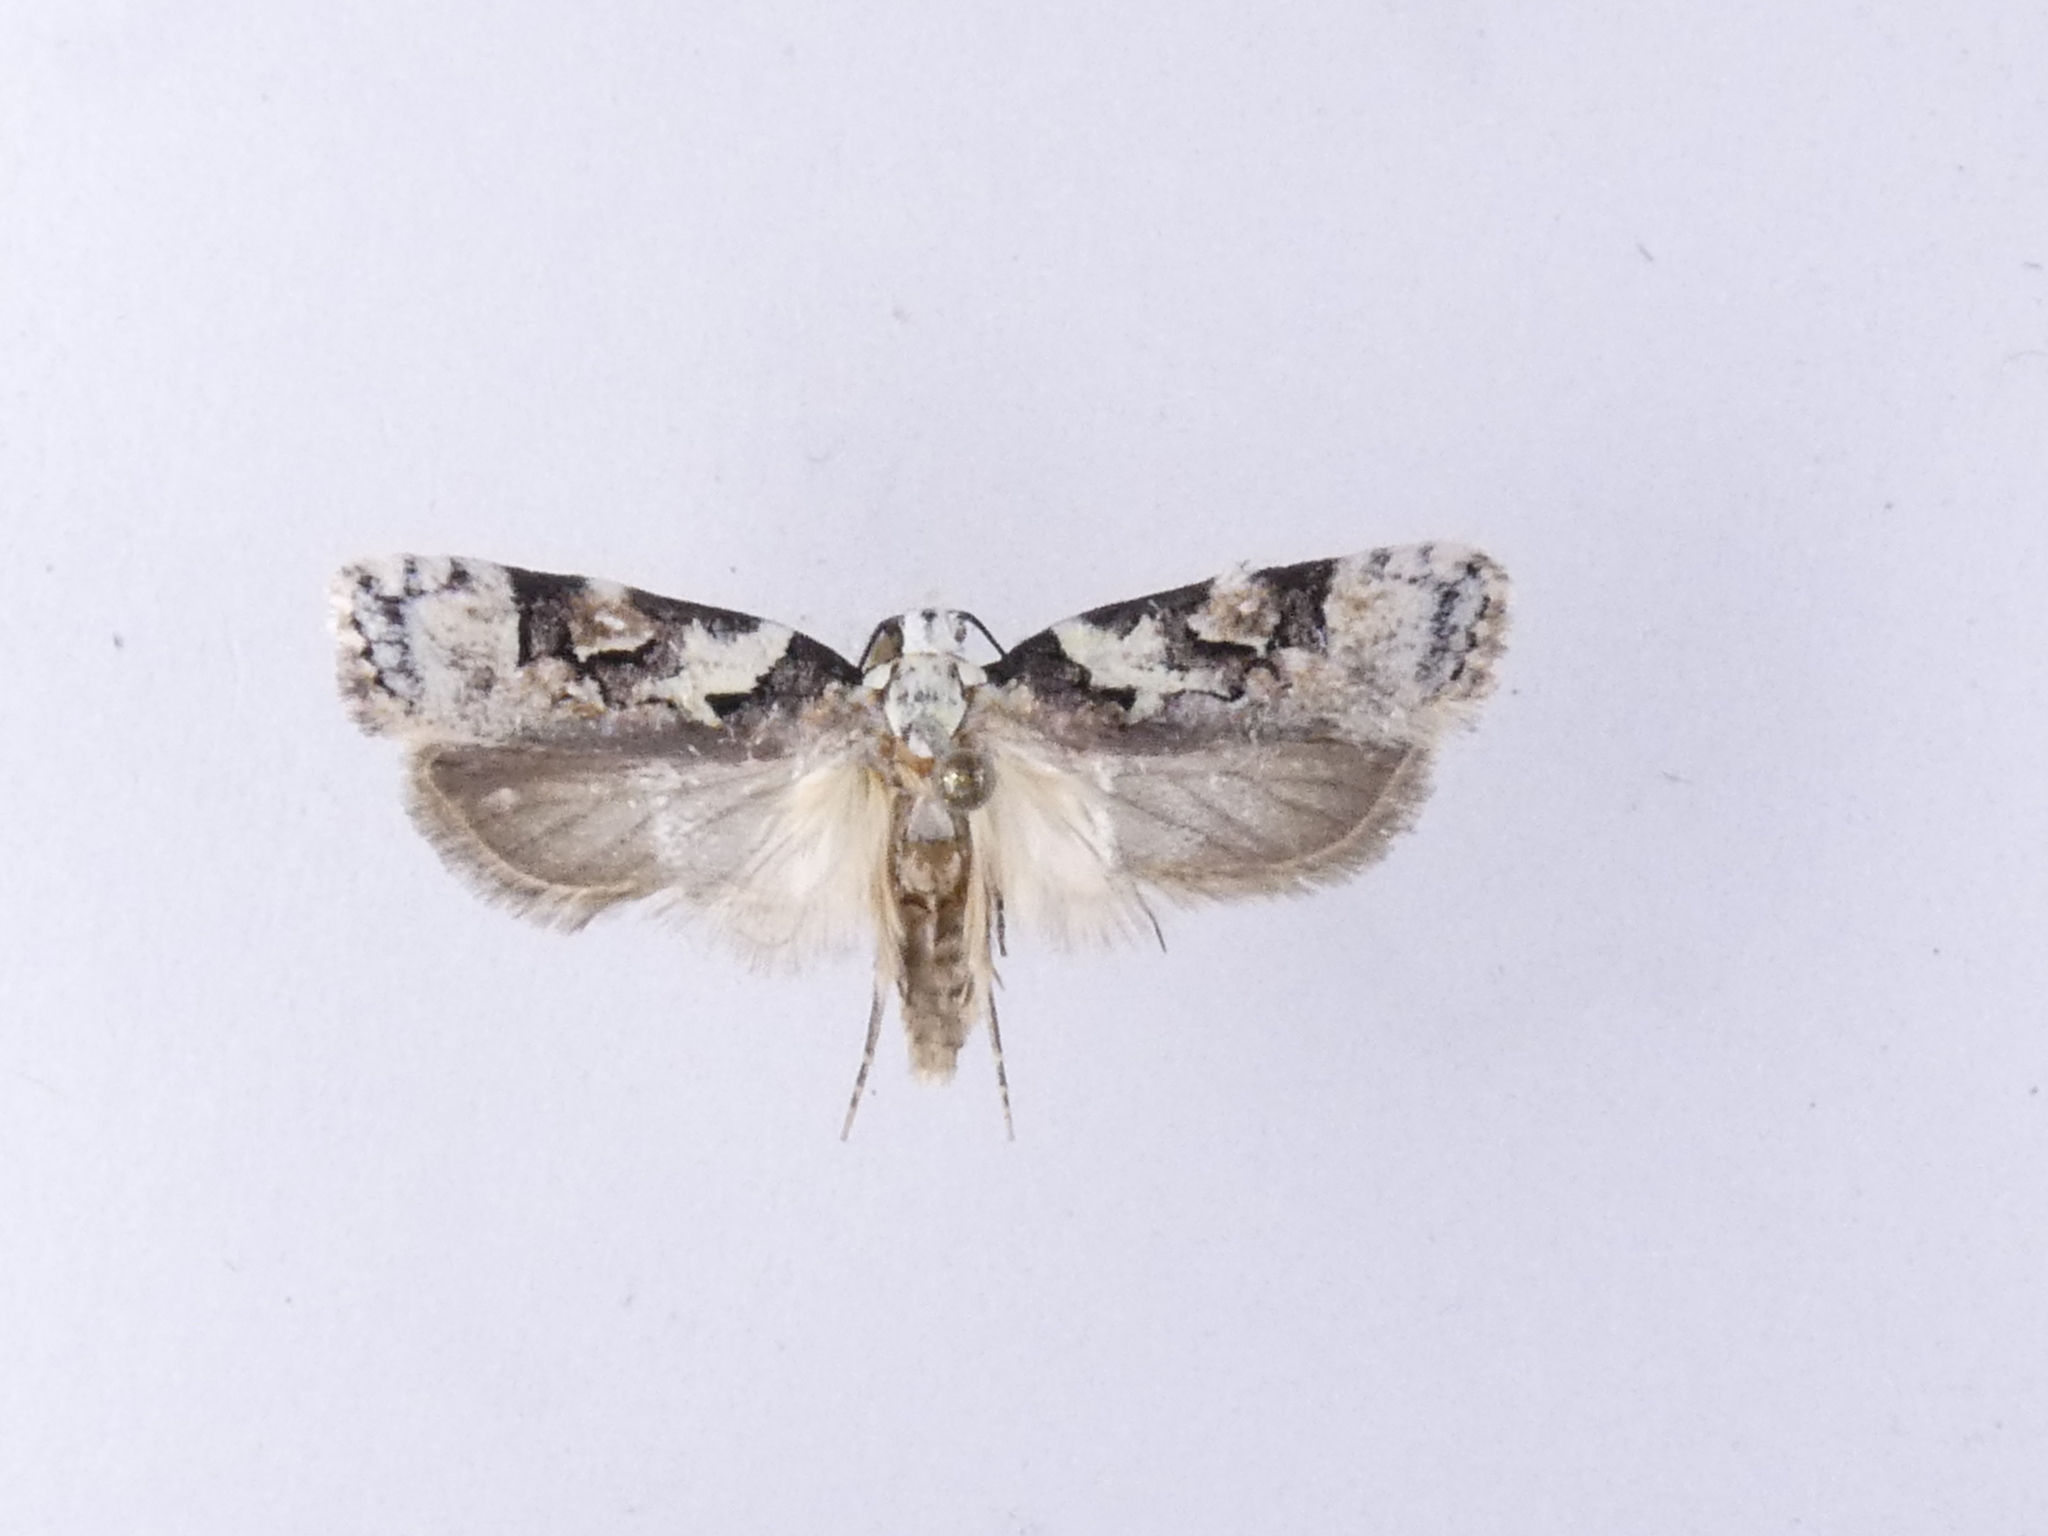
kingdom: Animalia
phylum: Arthropoda
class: Insecta
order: Lepidoptera
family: Oecophoridae
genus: Izatha
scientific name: Izatha epiphanes
